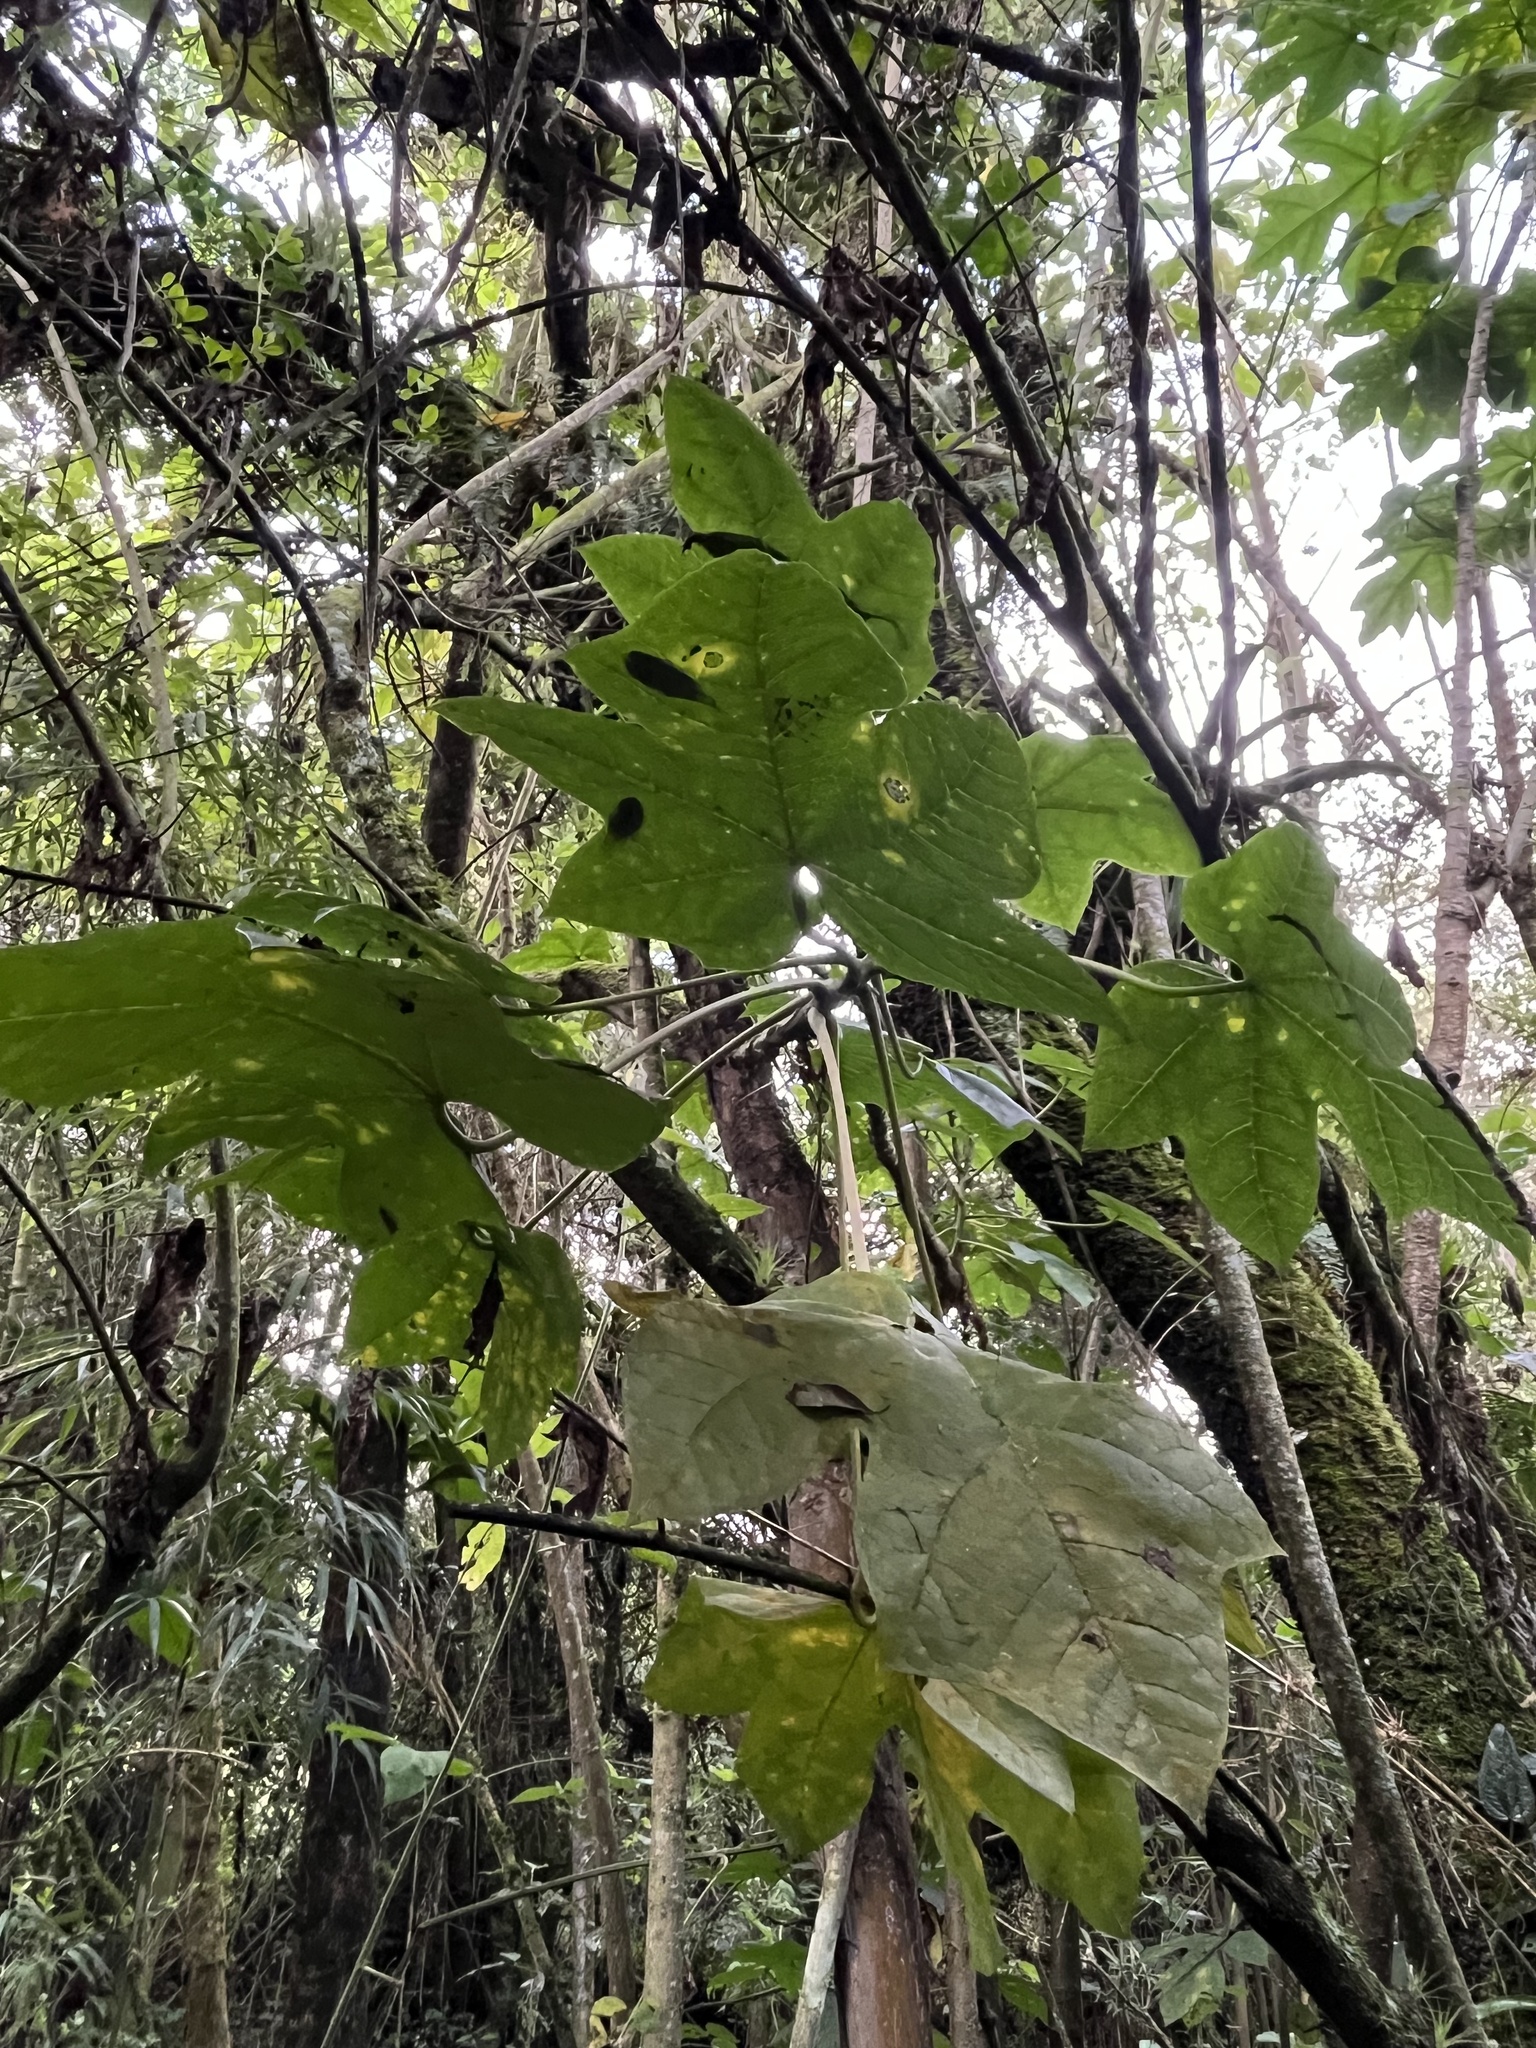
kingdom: Plantae
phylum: Tracheophyta
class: Magnoliopsida
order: Brassicales
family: Caricaceae
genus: Vasconcellea
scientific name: Vasconcellea pubescens
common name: Mountain papaya
